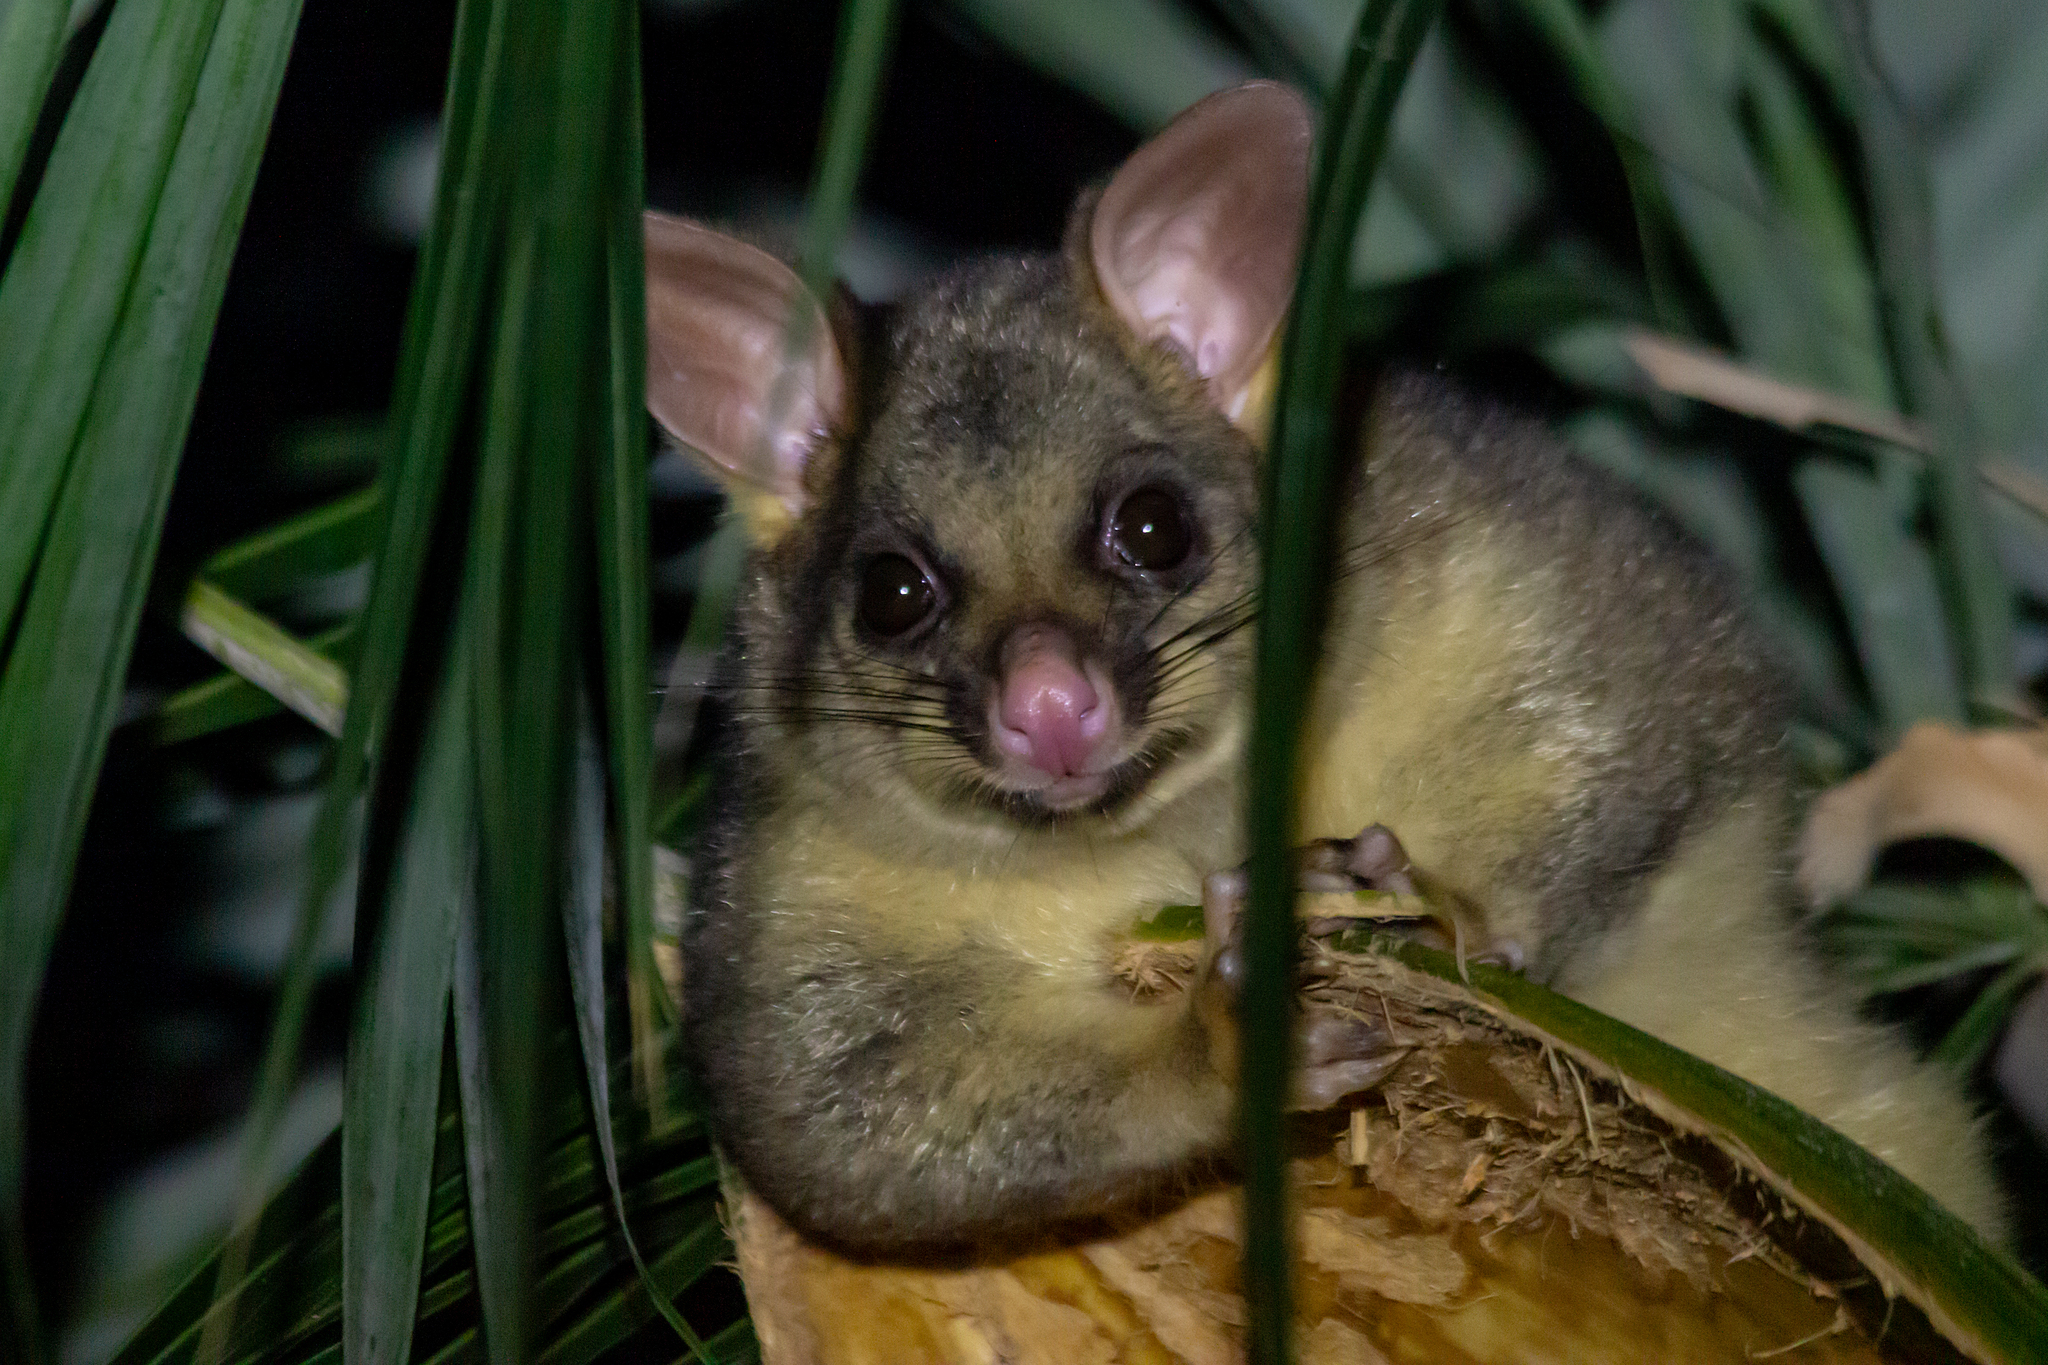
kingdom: Animalia
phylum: Chordata
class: Mammalia
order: Diprotodontia
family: Phalangeridae
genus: Trichosurus
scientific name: Trichosurus vulpecula
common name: Common brushtail
